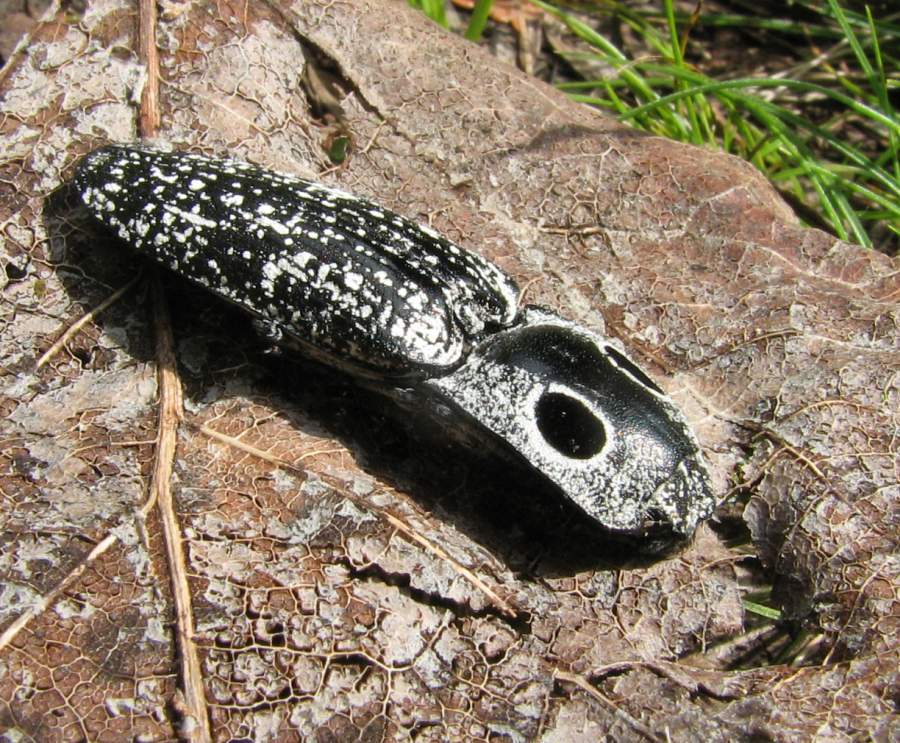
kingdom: Animalia
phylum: Arthropoda
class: Insecta
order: Coleoptera
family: Elateridae
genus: Alaus
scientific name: Alaus oculatus
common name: Eastern eyed click beetle
